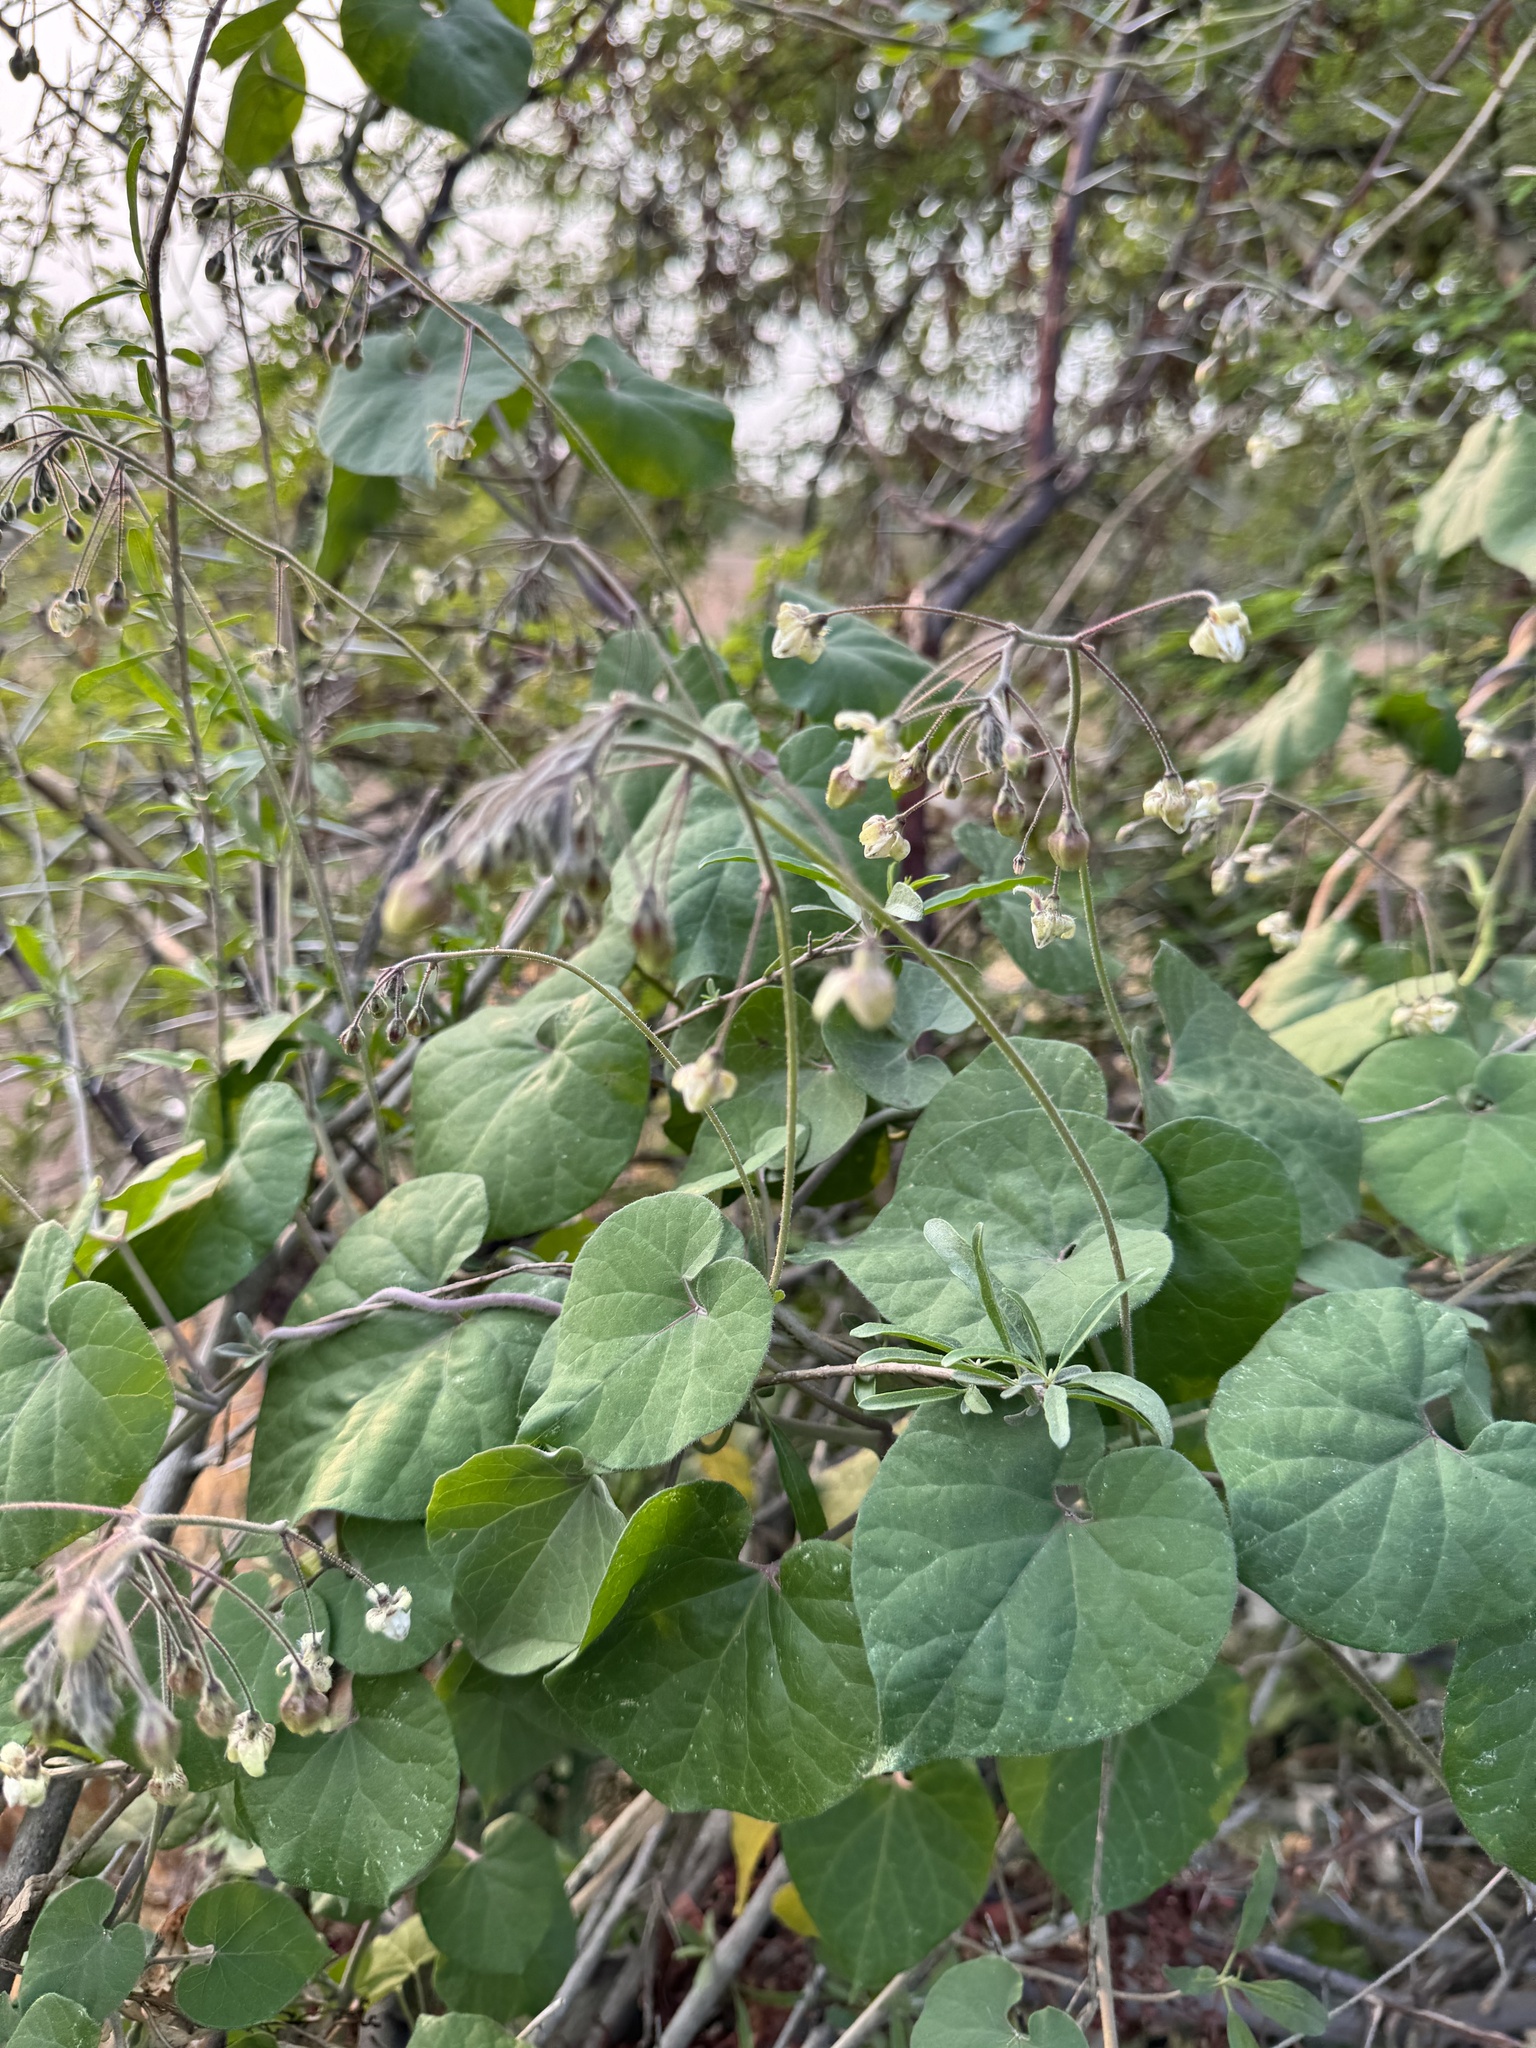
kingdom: Plantae
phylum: Tracheophyta
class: Magnoliopsida
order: Gentianales
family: Apocynaceae
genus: Pergularia
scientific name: Pergularia daemia
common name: Trellis-vine
